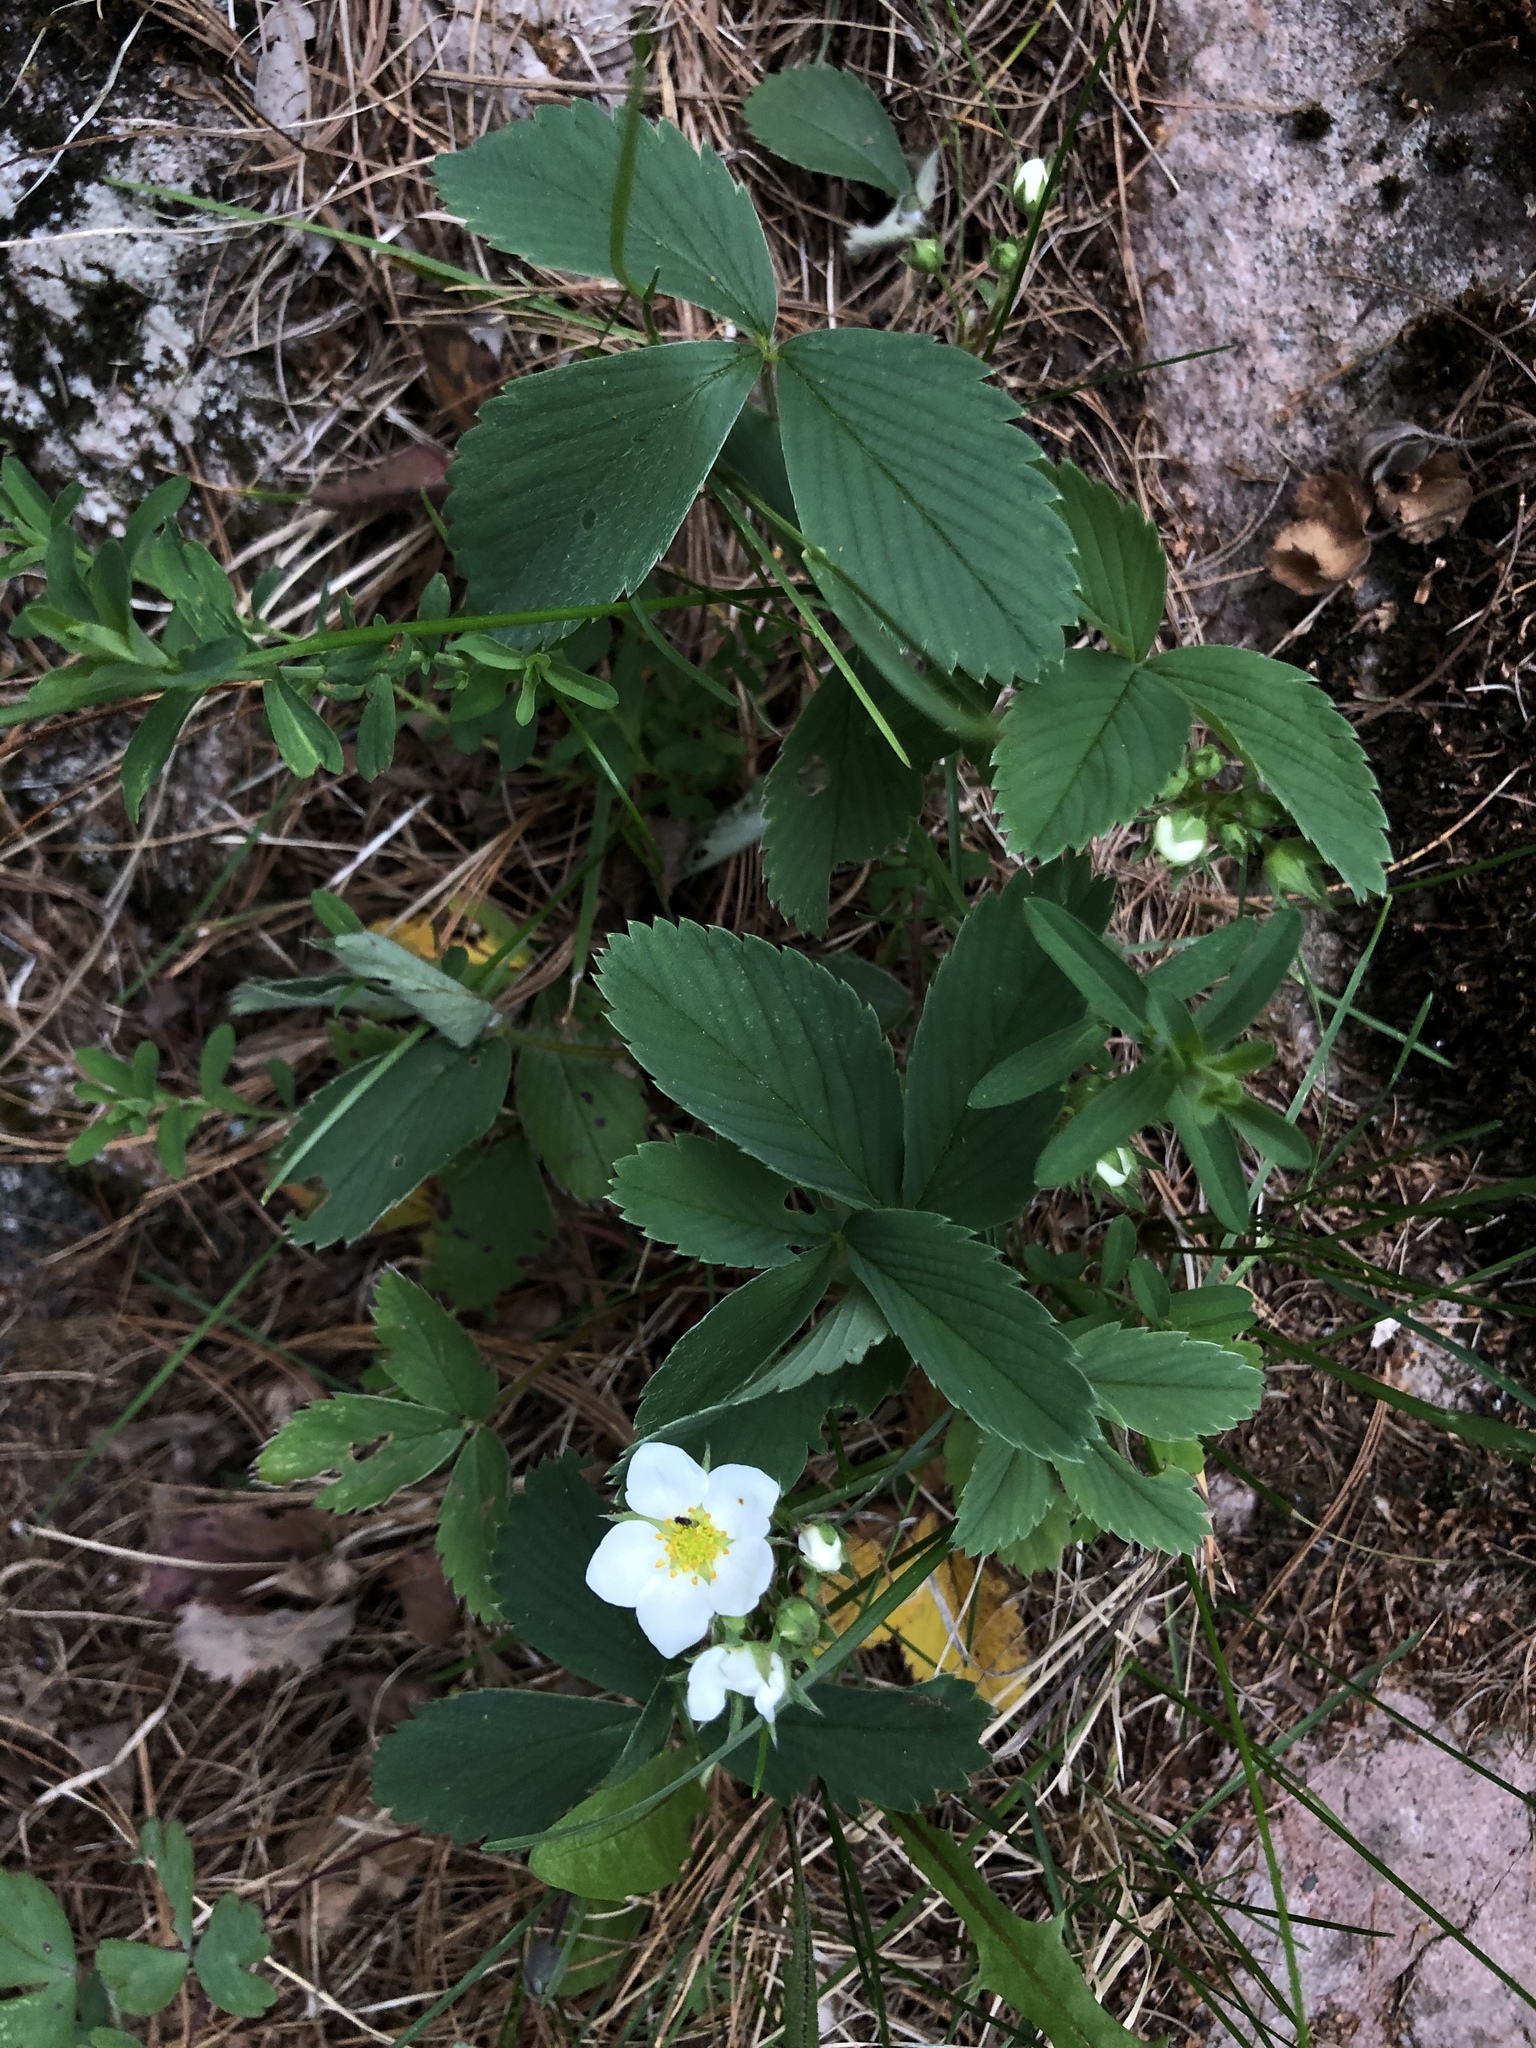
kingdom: Plantae
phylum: Tracheophyta
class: Magnoliopsida
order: Rosales
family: Rosaceae
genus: Fragaria
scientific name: Fragaria virginiana
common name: Thickleaved wild strawberry
